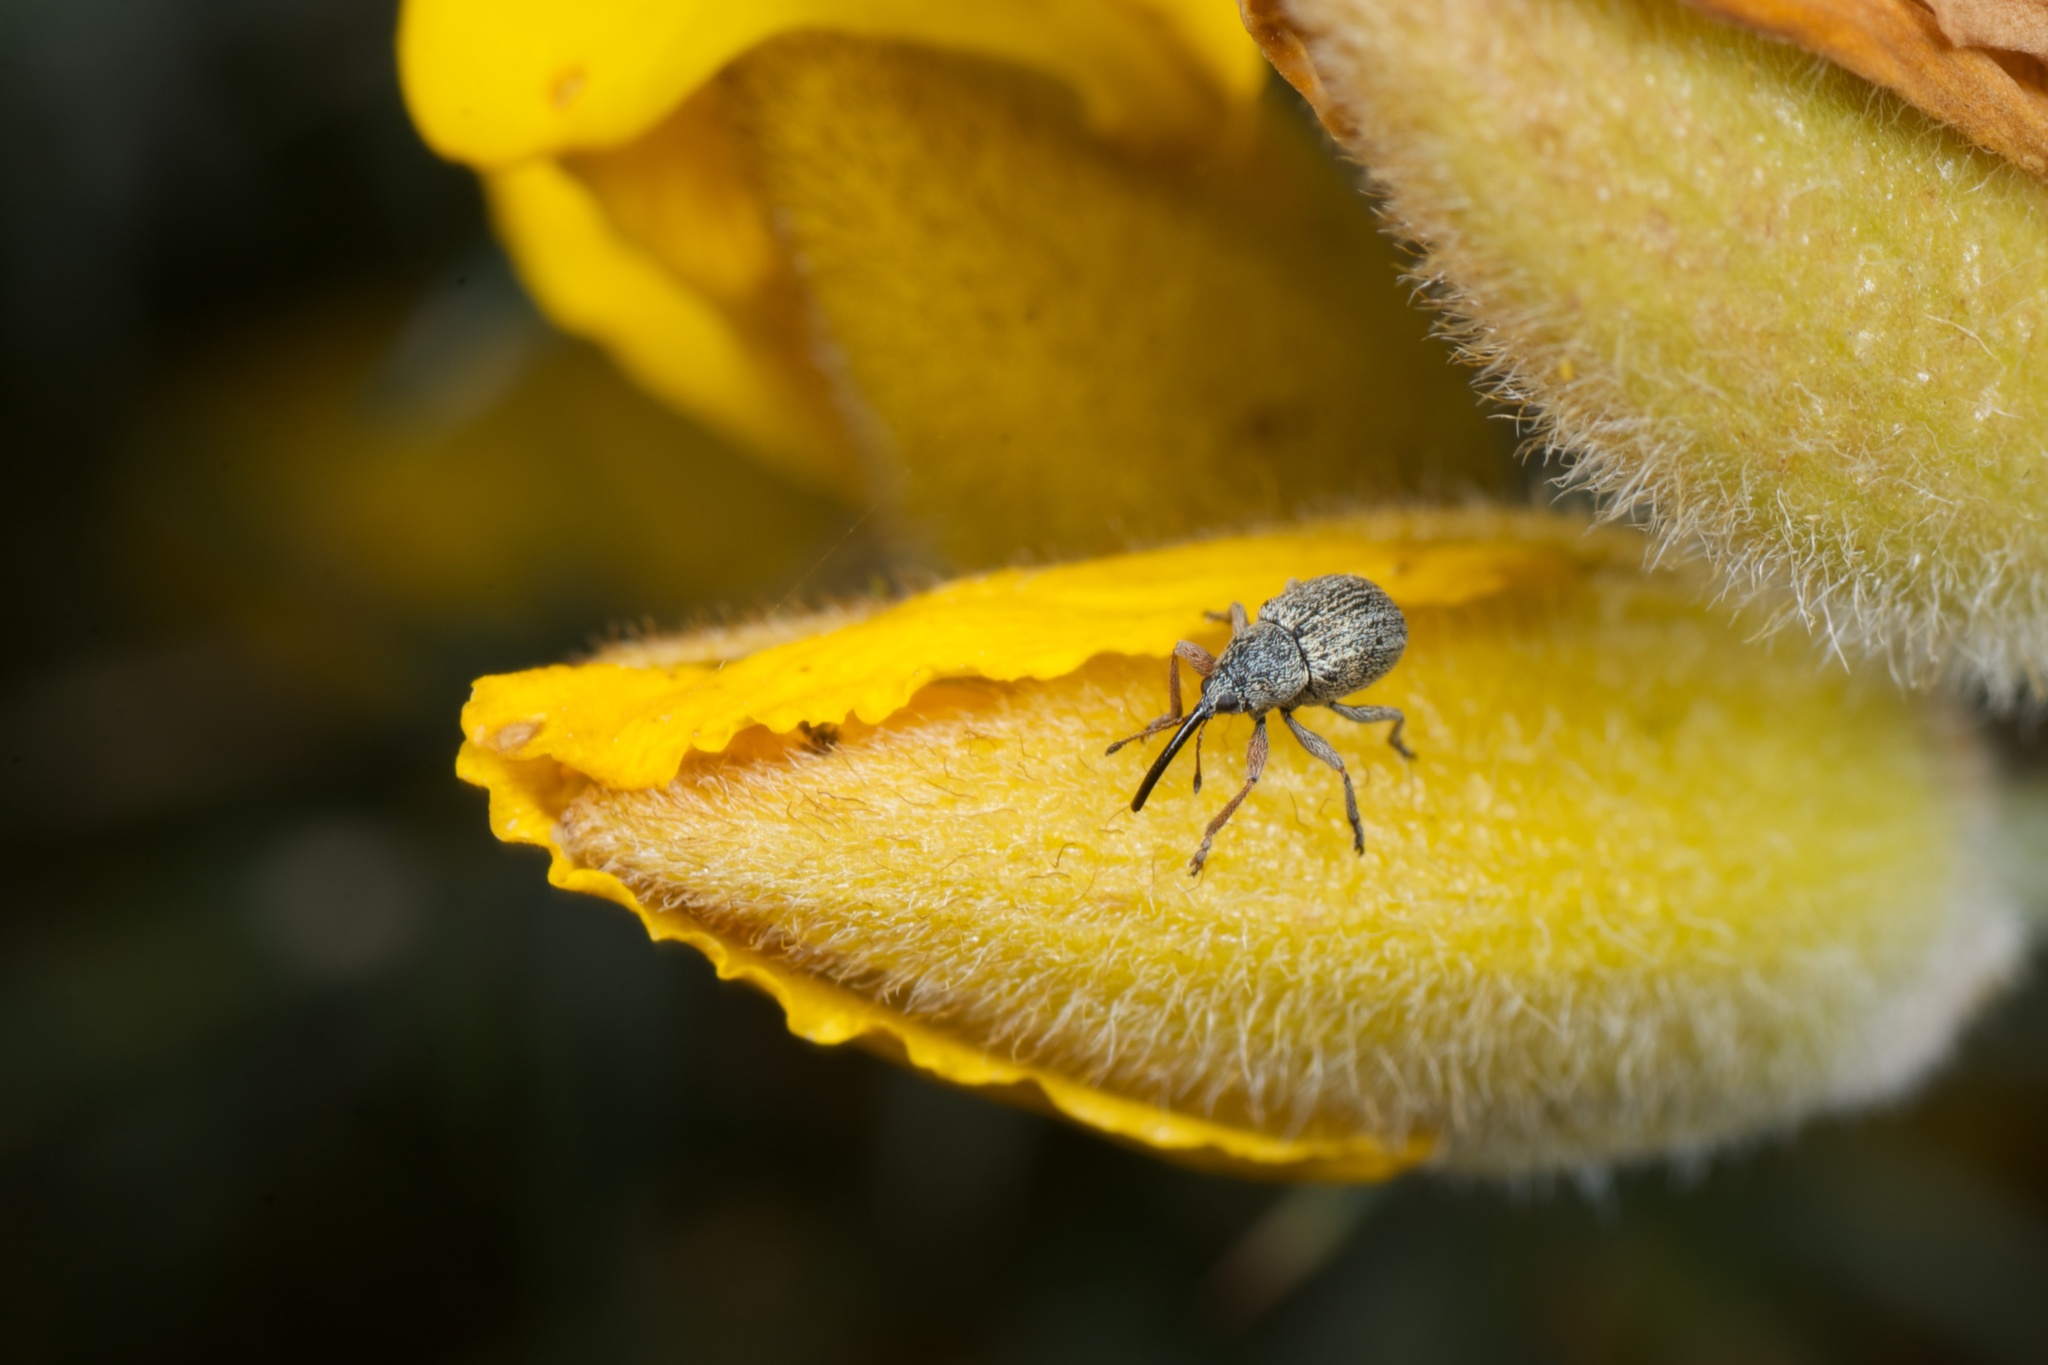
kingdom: Animalia
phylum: Arthropoda
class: Insecta
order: Coleoptera
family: Brentidae
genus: Exapion
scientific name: Exapion ulicis
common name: Gorse seed weevil
